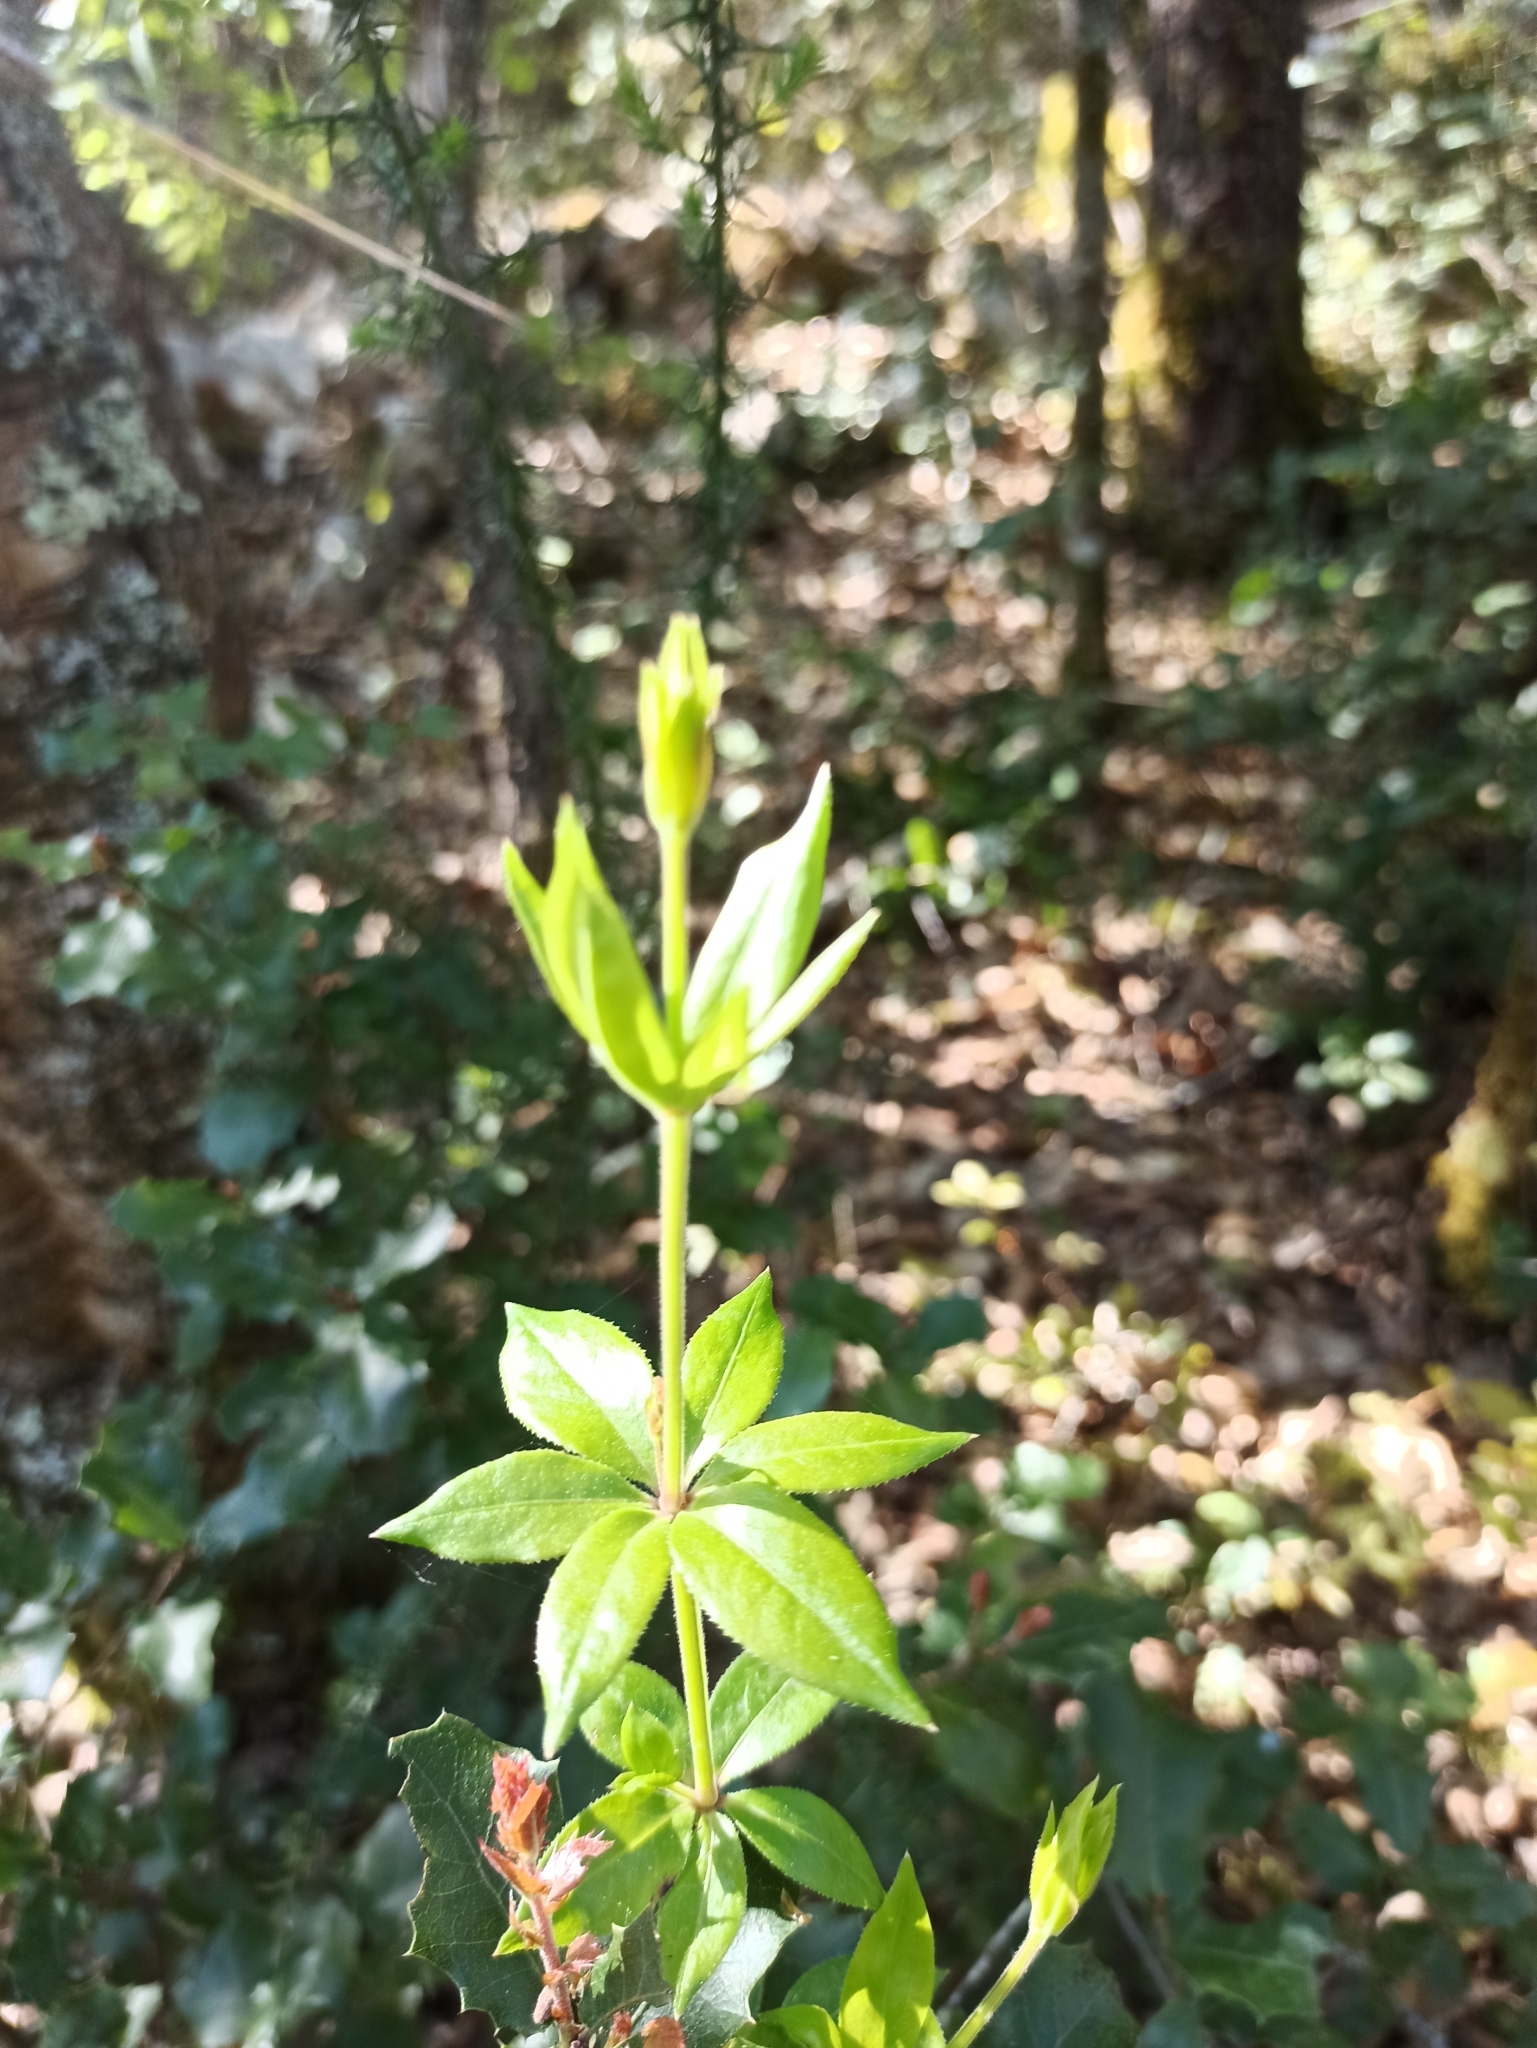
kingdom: Plantae
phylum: Tracheophyta
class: Magnoliopsida
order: Gentianales
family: Rubiaceae
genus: Rubia
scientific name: Rubia peregrina
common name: Wild madder
